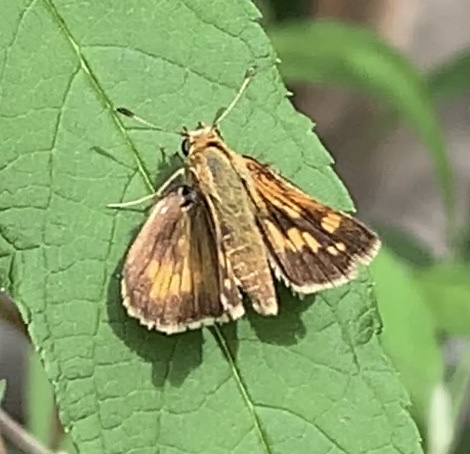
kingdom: Animalia
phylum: Arthropoda
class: Insecta
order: Lepidoptera
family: Hesperiidae
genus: Polites
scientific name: Polites coras
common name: Peck's skipper
